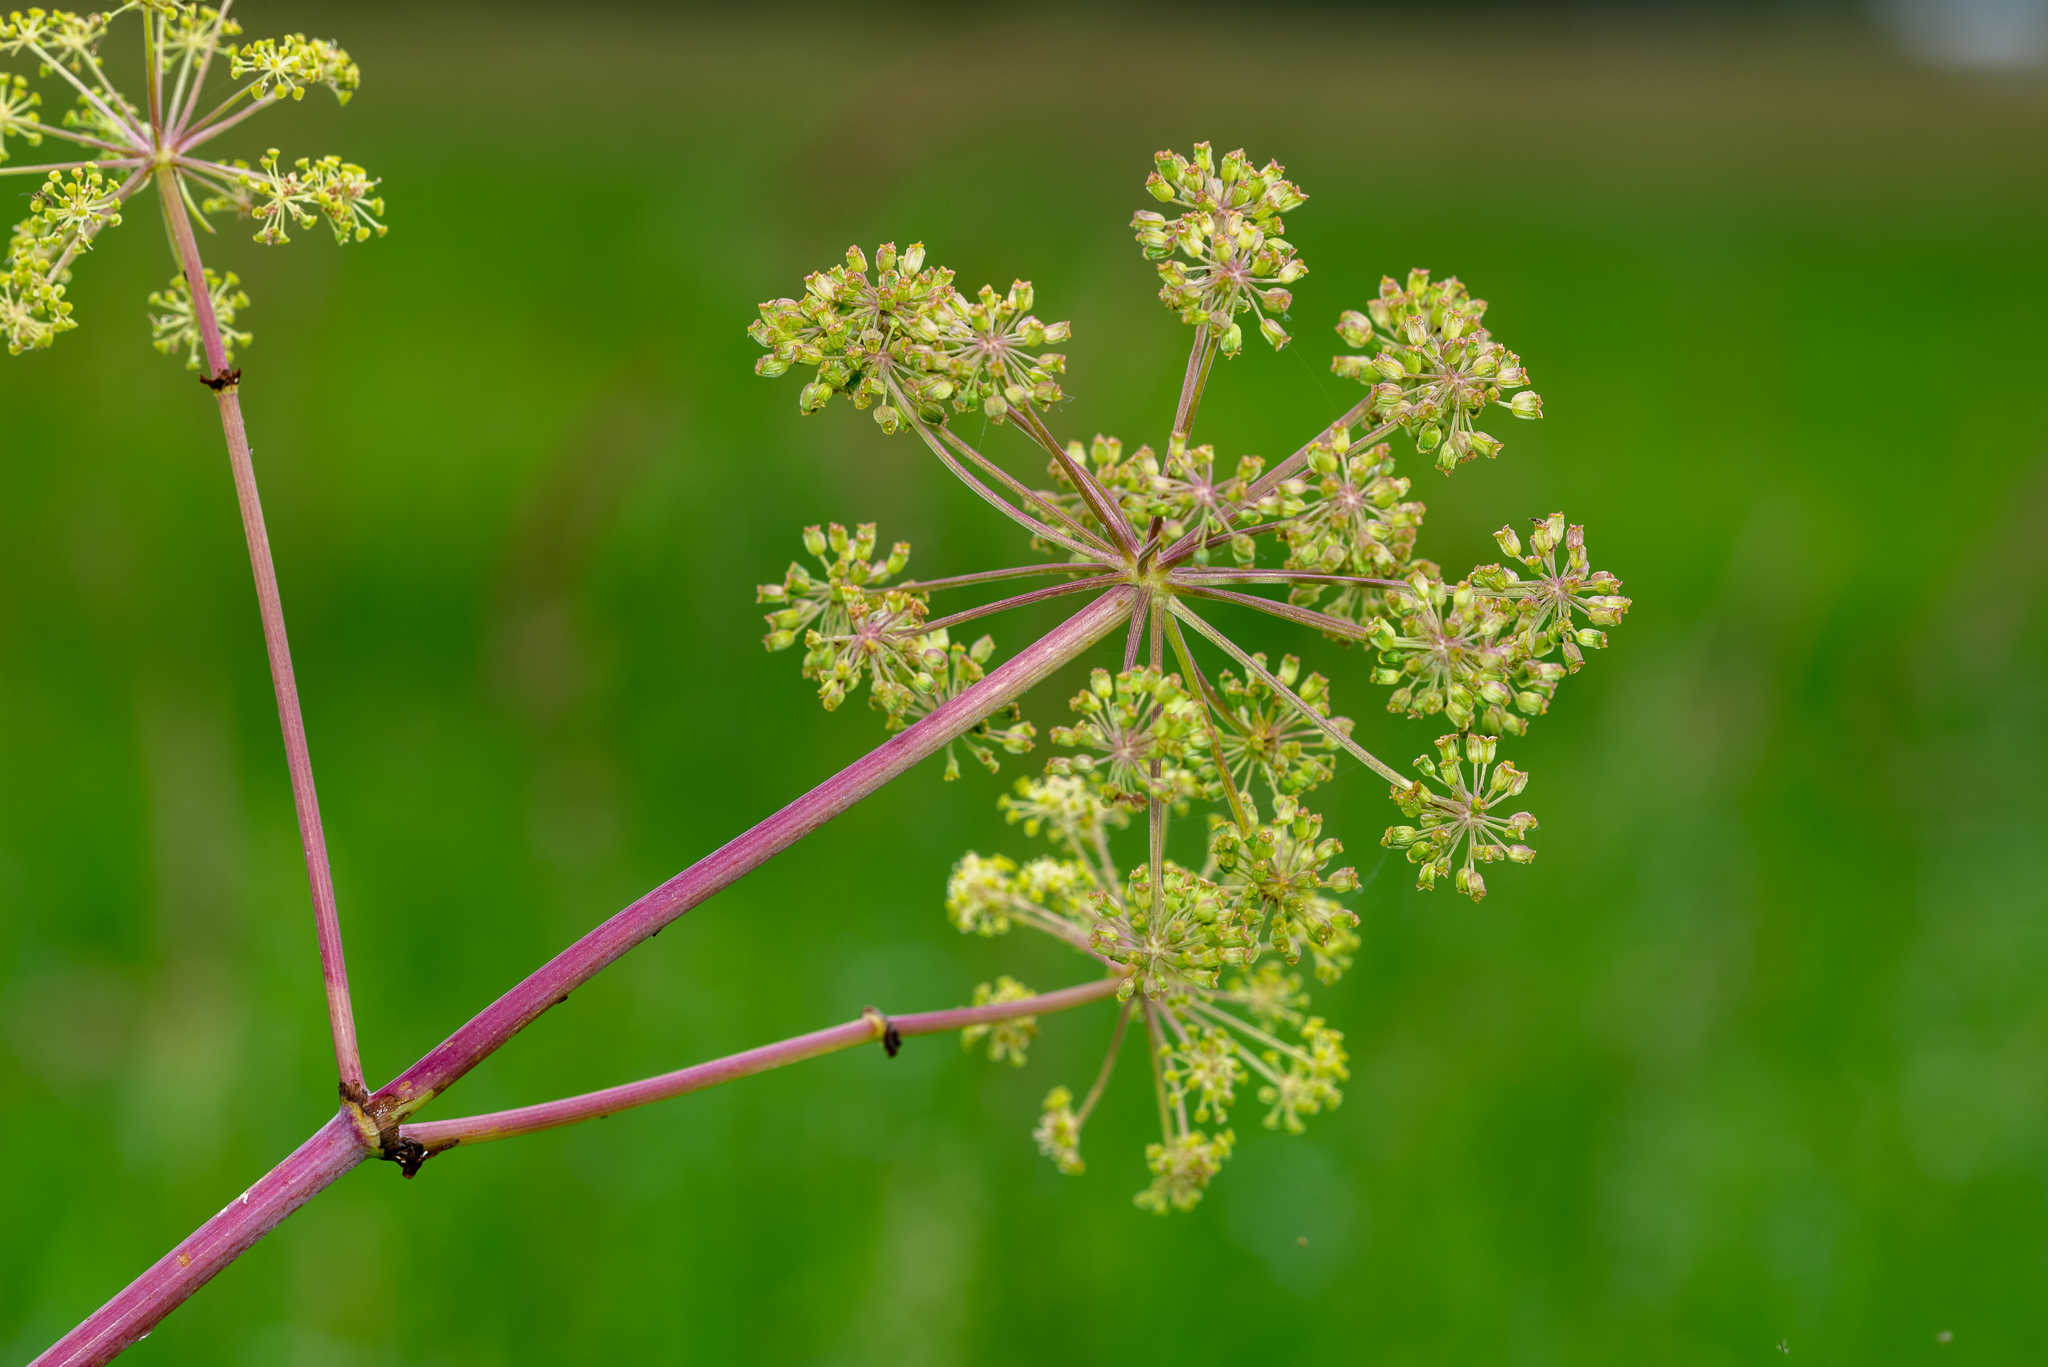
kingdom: Plantae
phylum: Tracheophyta
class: Magnoliopsida
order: Apiales
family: Apiaceae
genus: Angelica
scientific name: Angelica atropurpurea
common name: Great angelica
